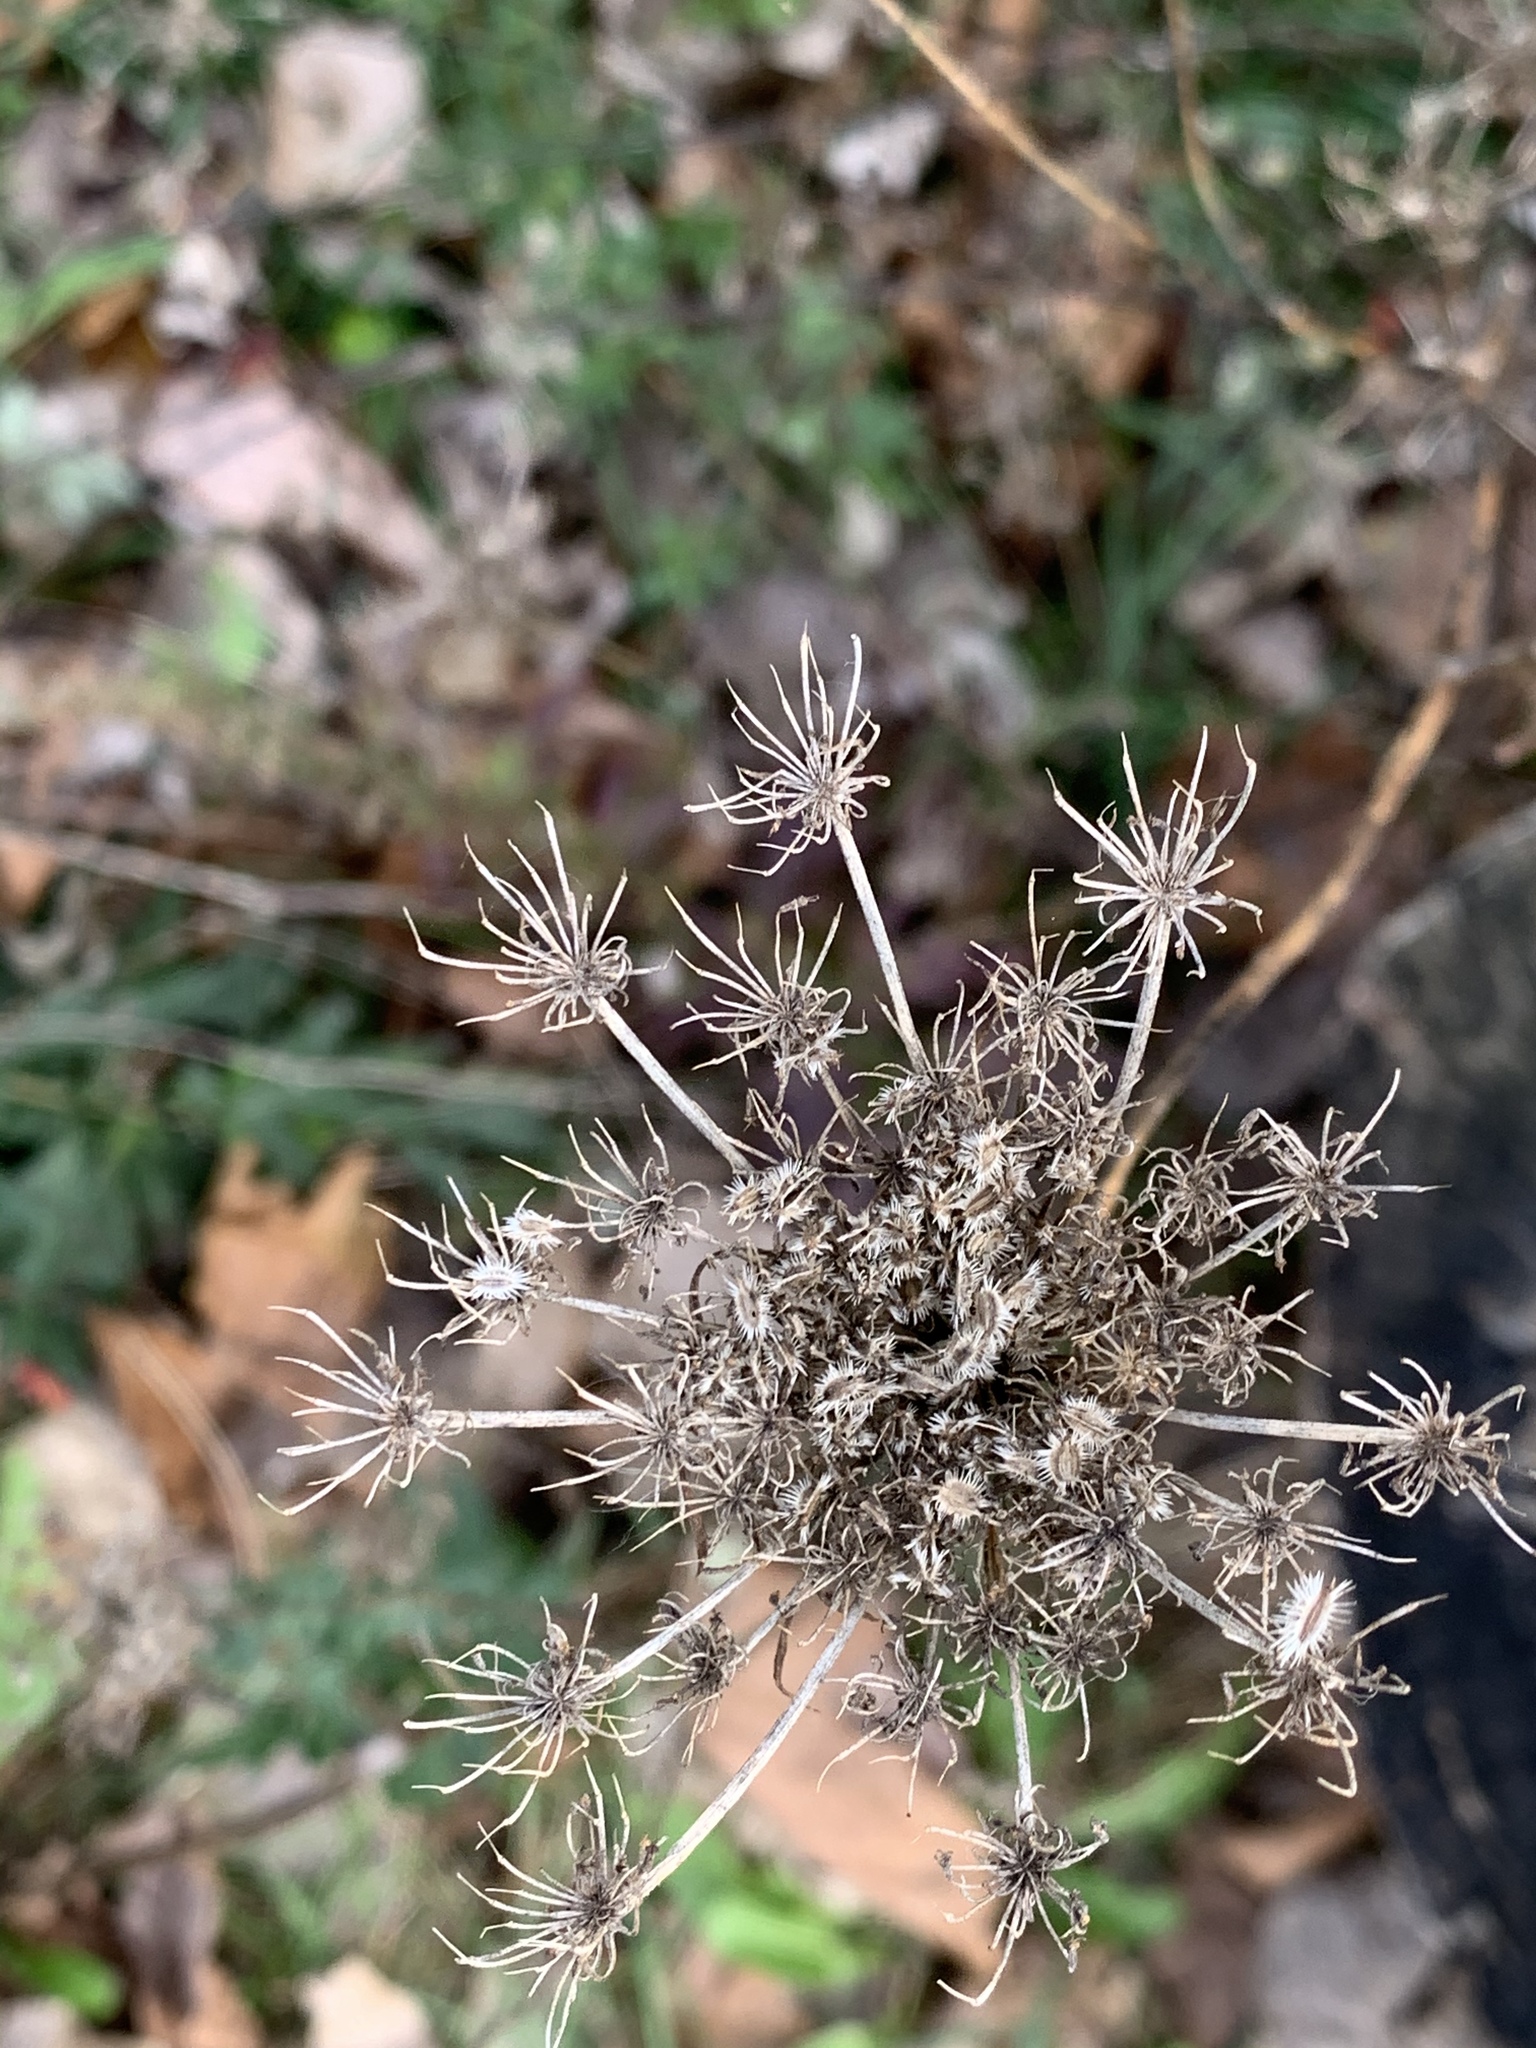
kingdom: Plantae
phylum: Tracheophyta
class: Magnoliopsida
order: Apiales
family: Apiaceae
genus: Daucus
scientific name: Daucus carota
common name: Wild carrot
